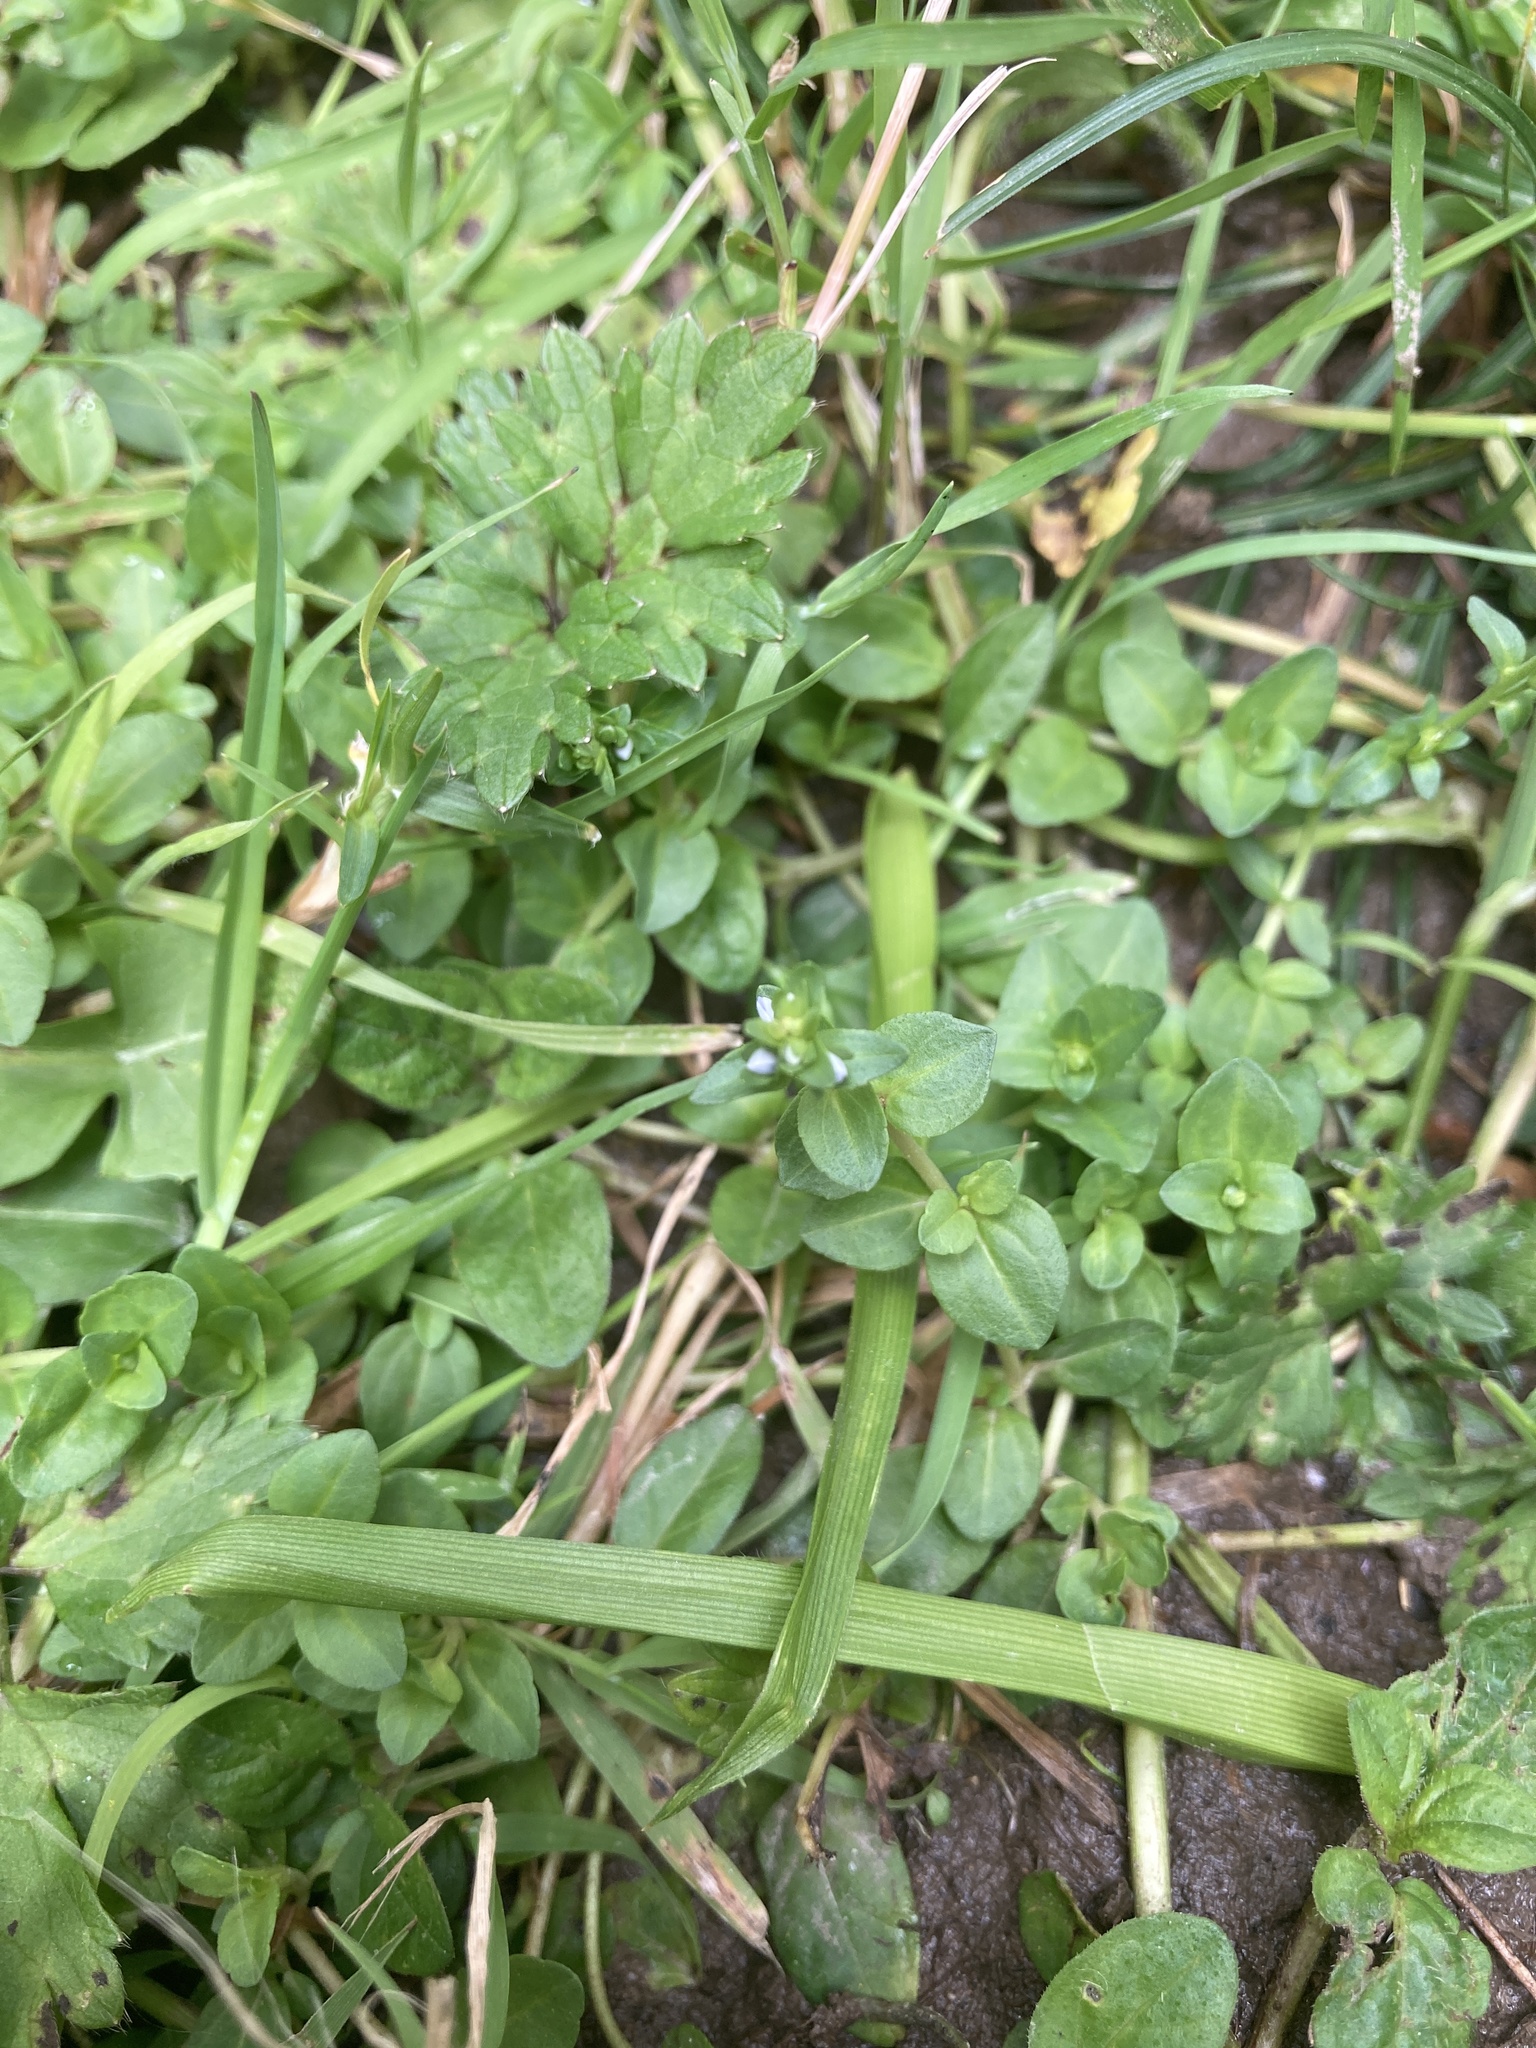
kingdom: Plantae
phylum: Tracheophyta
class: Magnoliopsida
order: Lamiales
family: Plantaginaceae
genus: Veronica
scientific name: Veronica serpyllifolia
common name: Thyme-leaved speedwell
